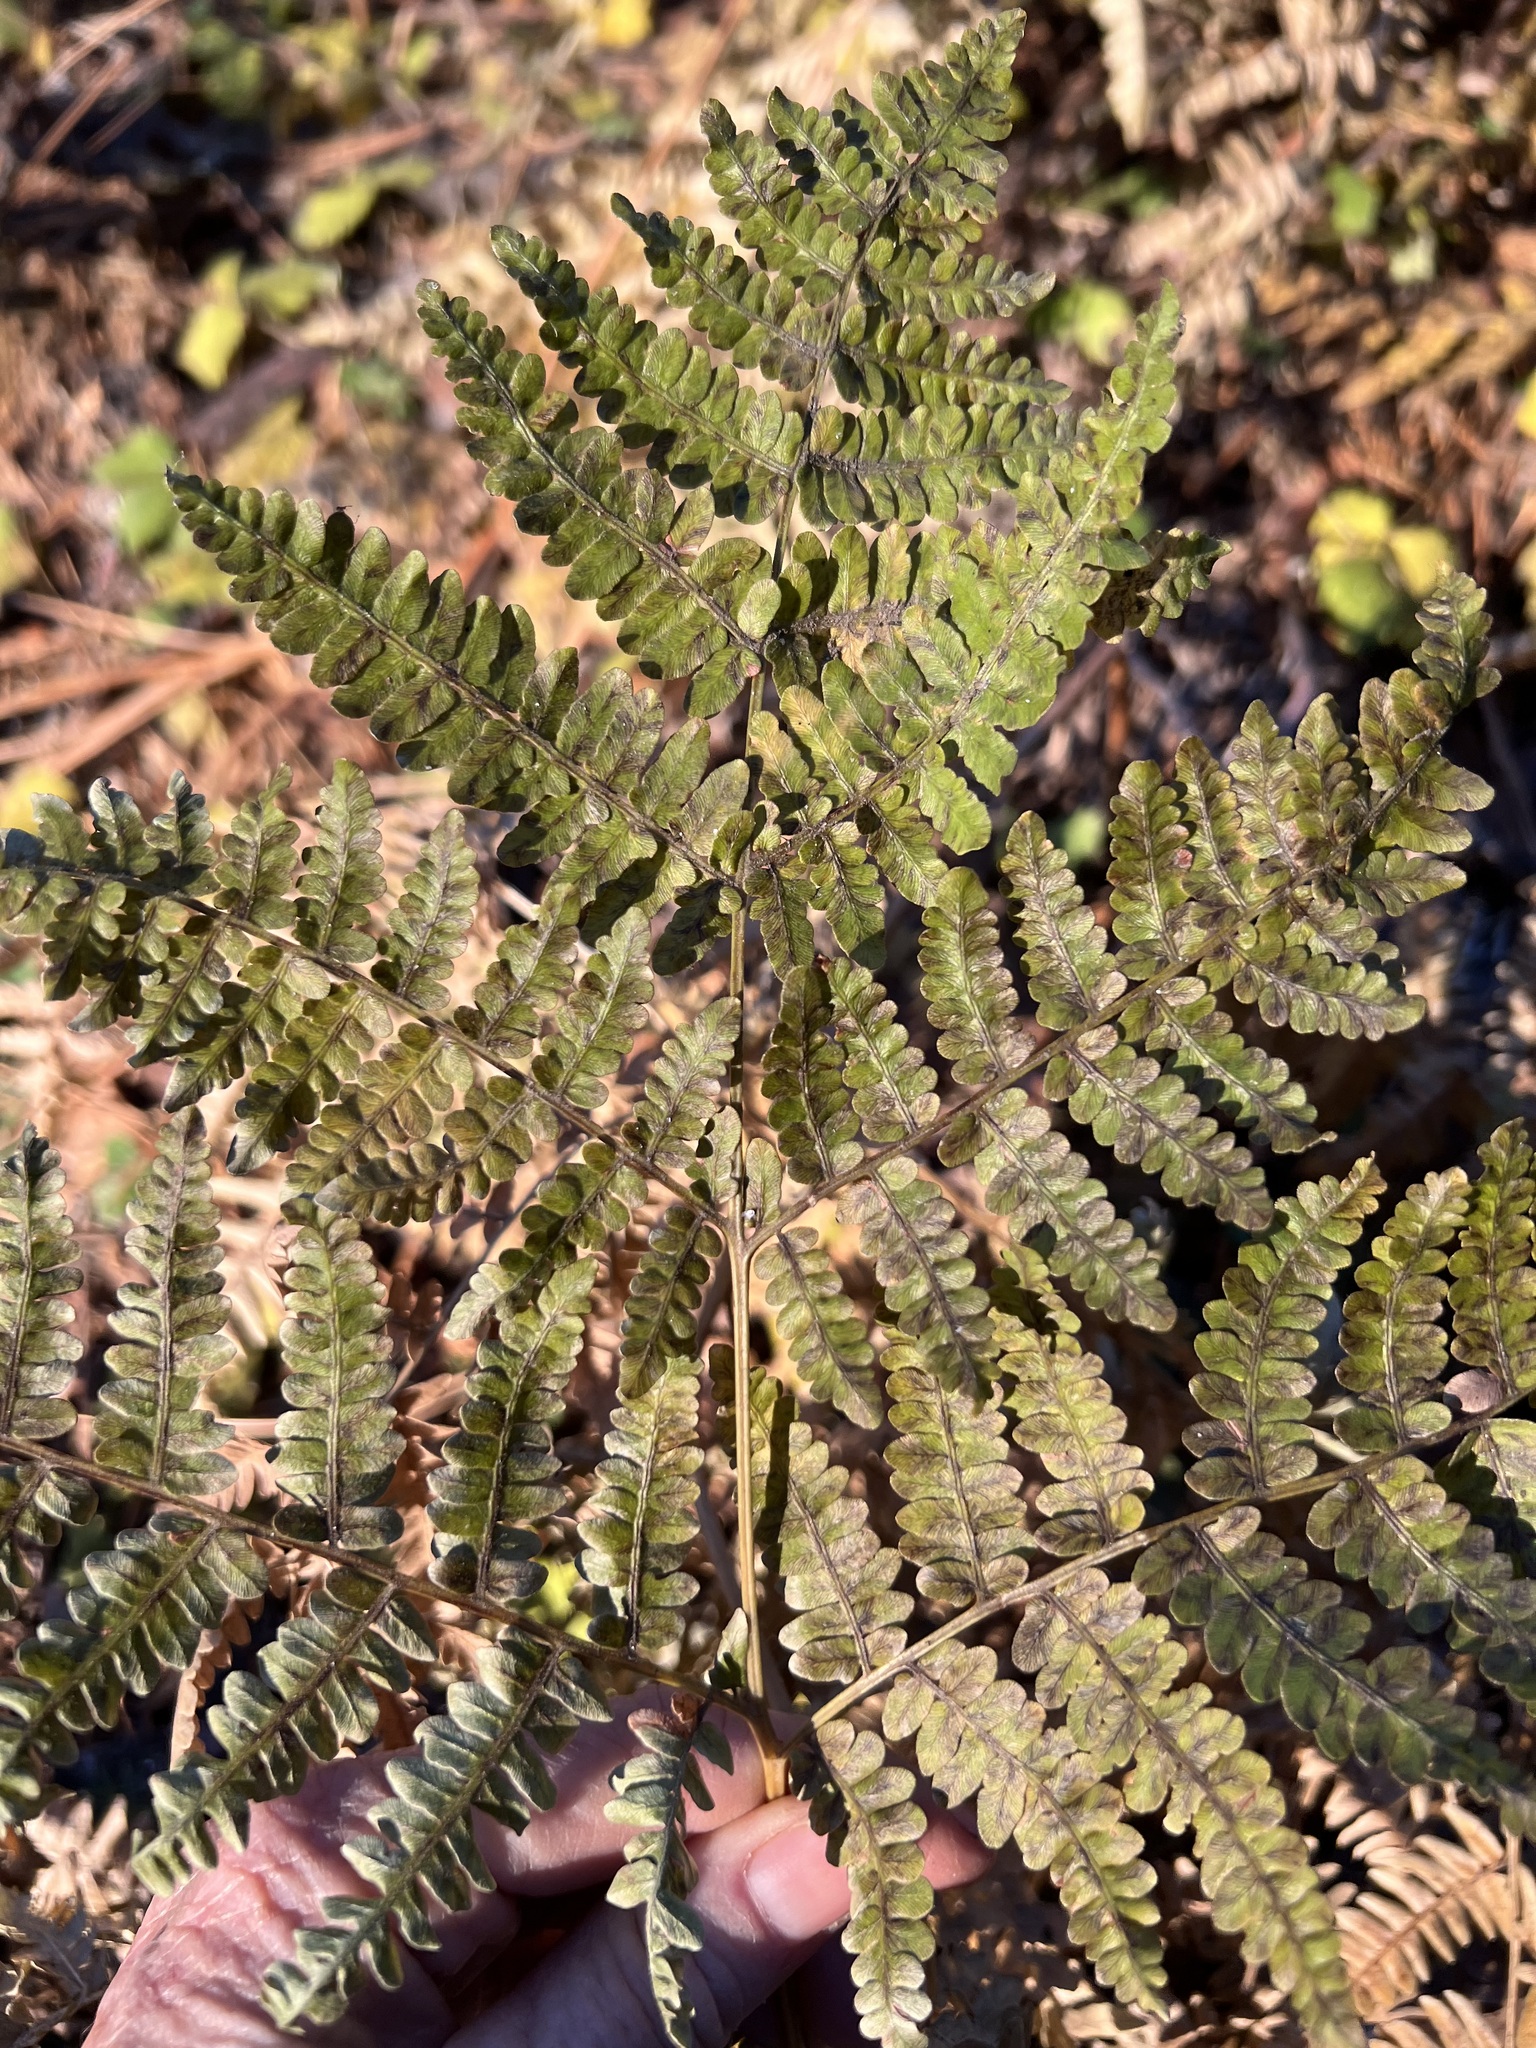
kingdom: Plantae
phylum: Tracheophyta
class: Polypodiopsida
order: Polypodiales
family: Dennstaedtiaceae
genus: Pteridium
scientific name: Pteridium aquilinum
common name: Bracken
